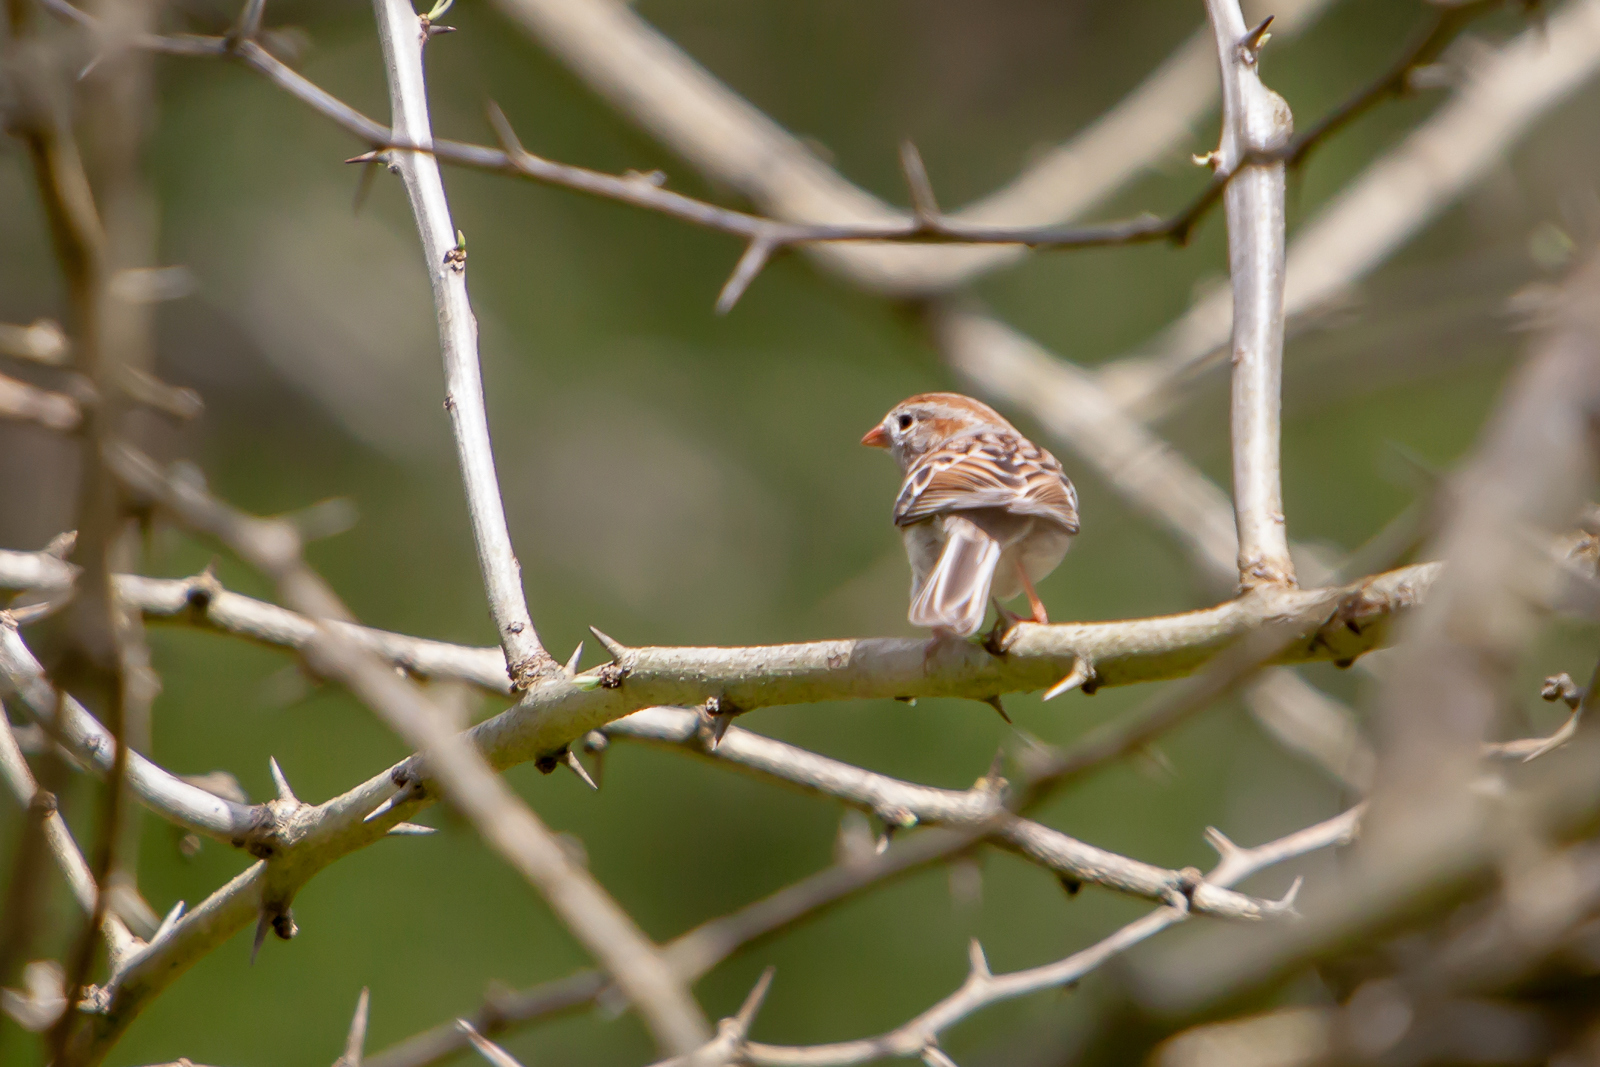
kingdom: Animalia
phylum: Chordata
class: Aves
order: Passeriformes
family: Passerellidae
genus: Spizella
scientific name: Spizella pusilla
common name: Field sparrow
